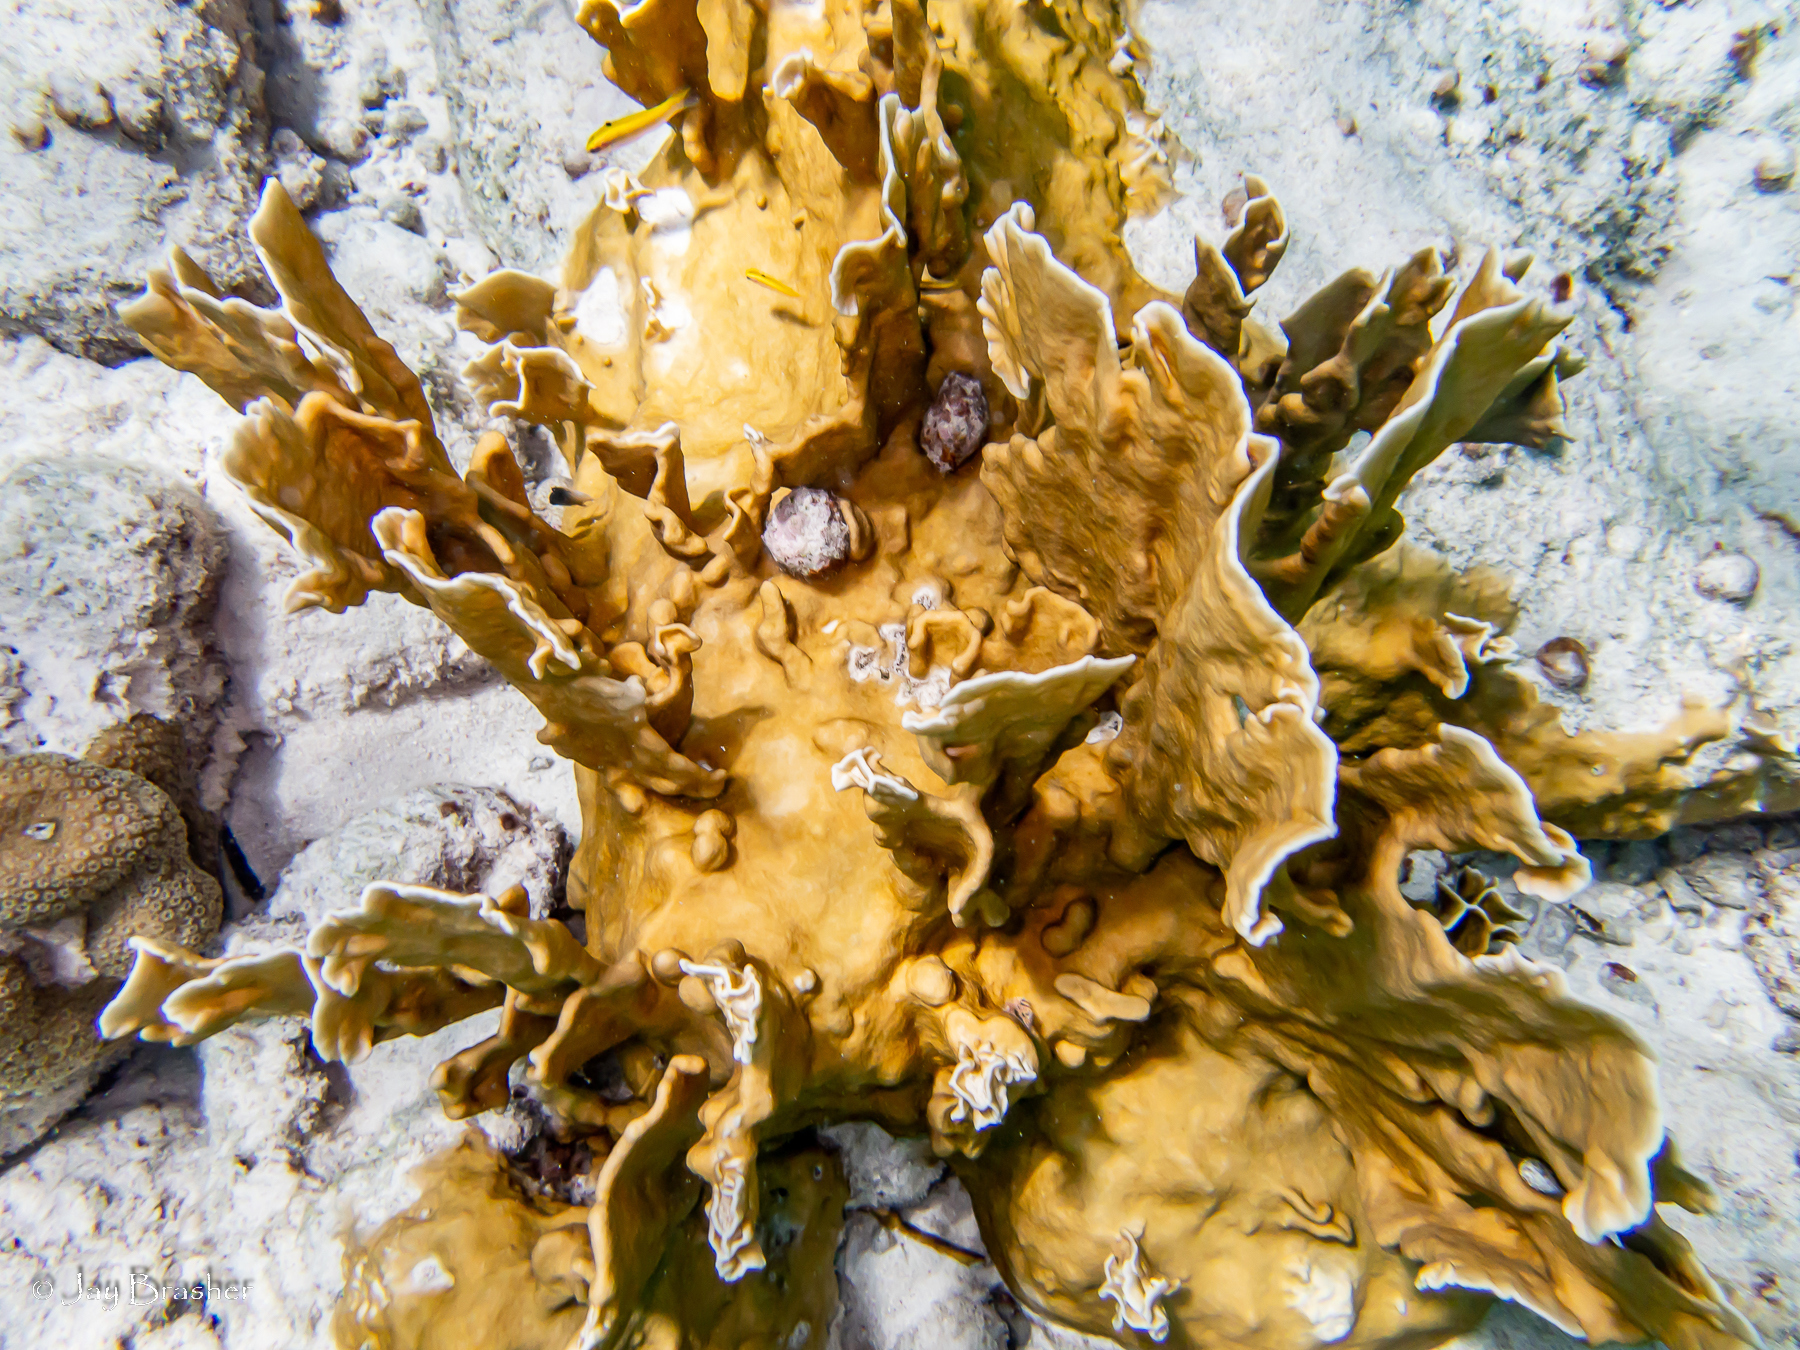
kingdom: Animalia
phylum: Cnidaria
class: Hydrozoa
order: Anthoathecata
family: Milleporidae
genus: Millepora
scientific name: Millepora complanata
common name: Bladed fire coral
